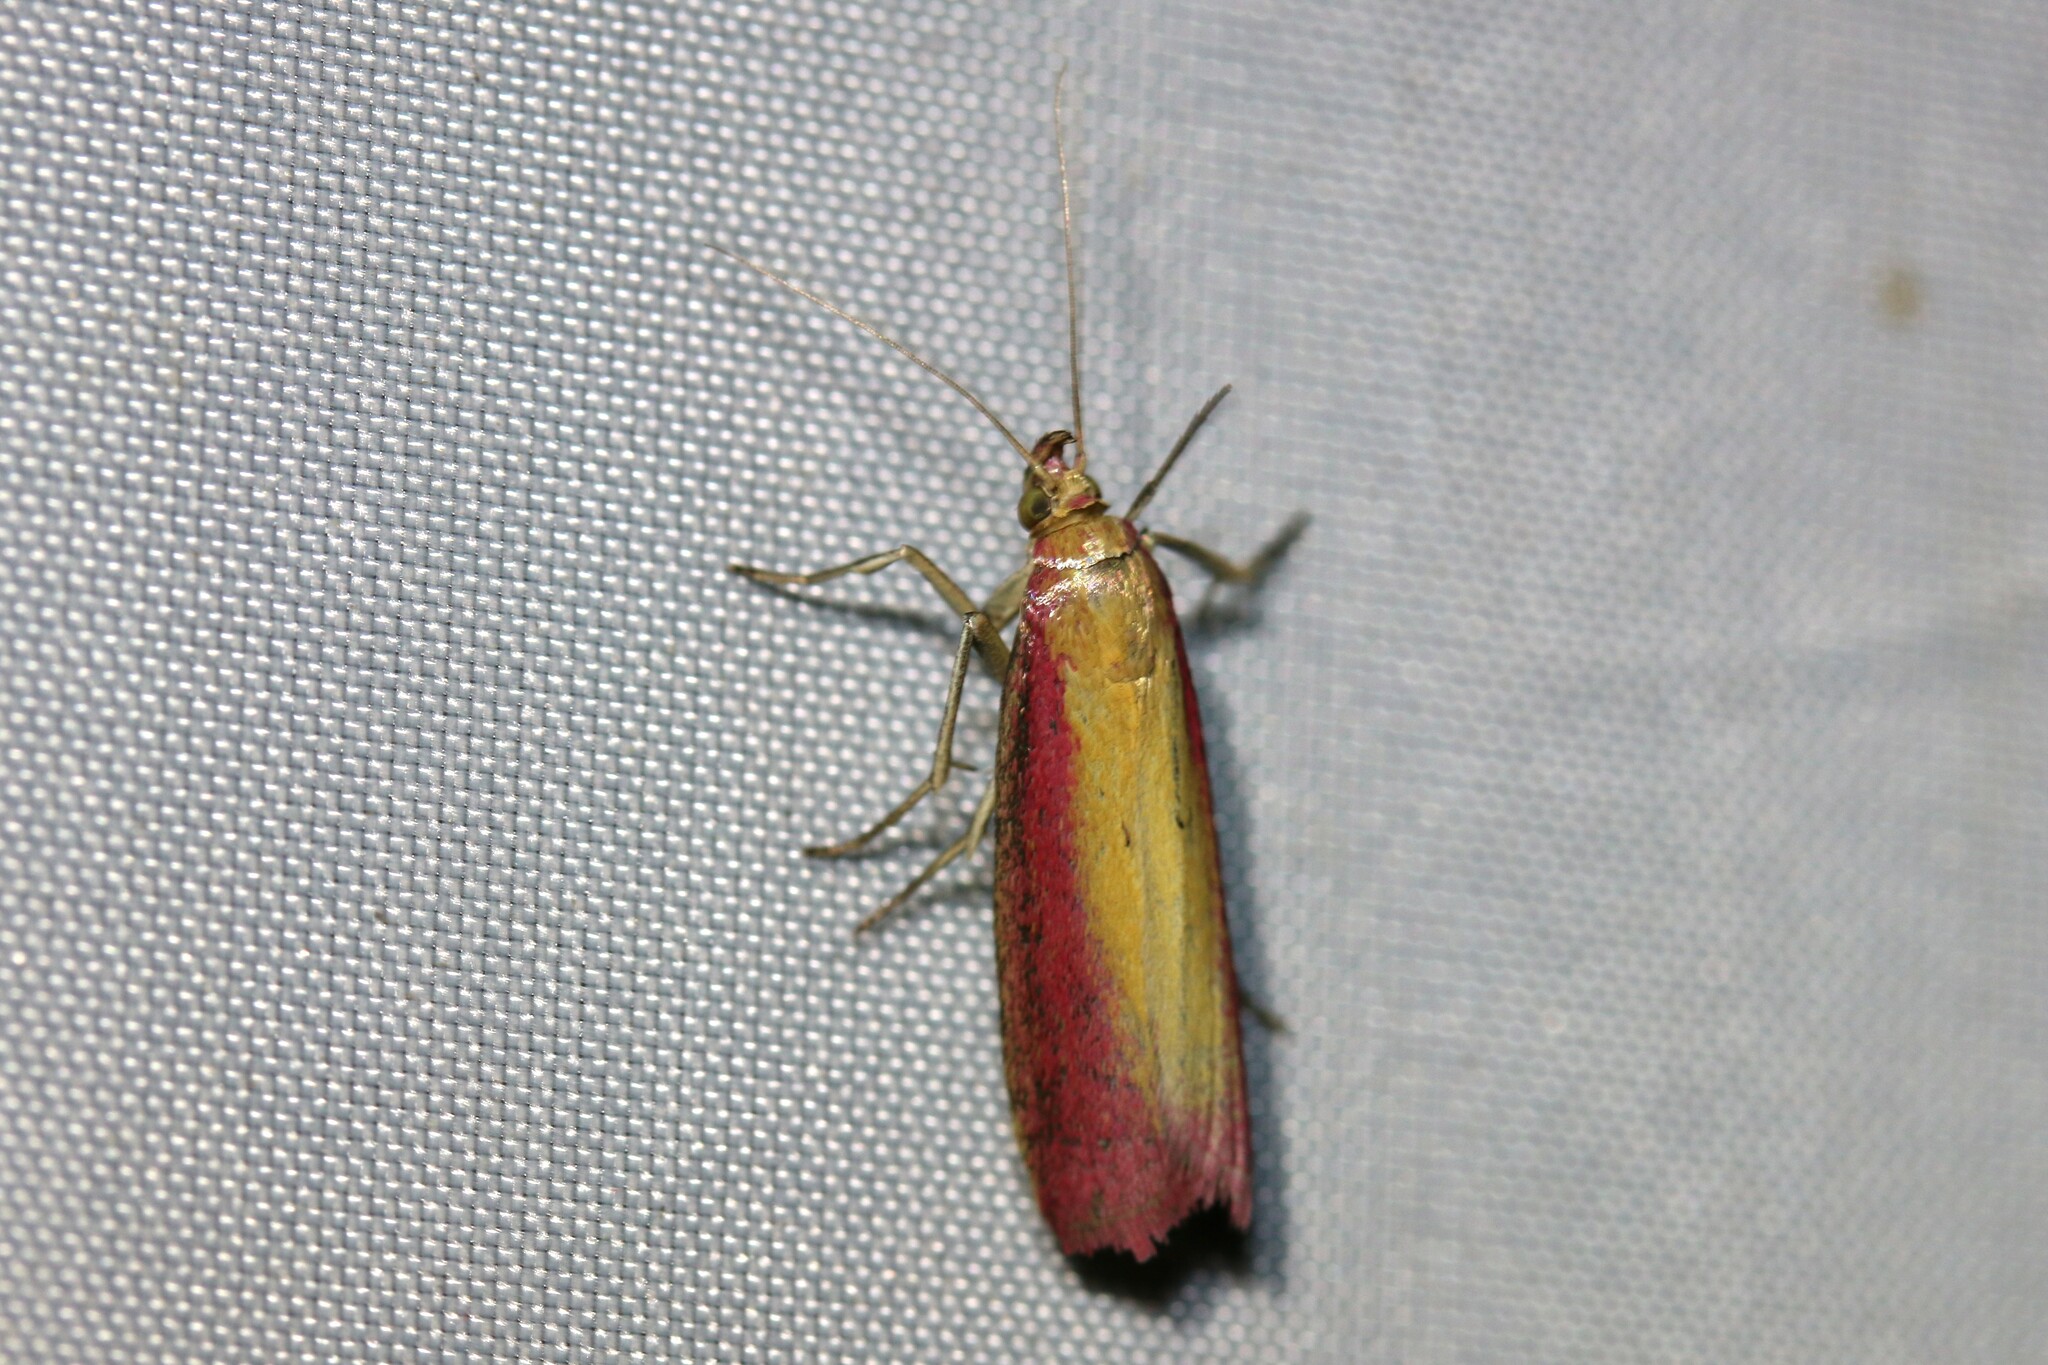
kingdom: Animalia
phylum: Arthropoda
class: Insecta
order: Lepidoptera
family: Pyralidae
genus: Oncocera
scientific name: Oncocera semirubella
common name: Rosy-striped knot-horn
